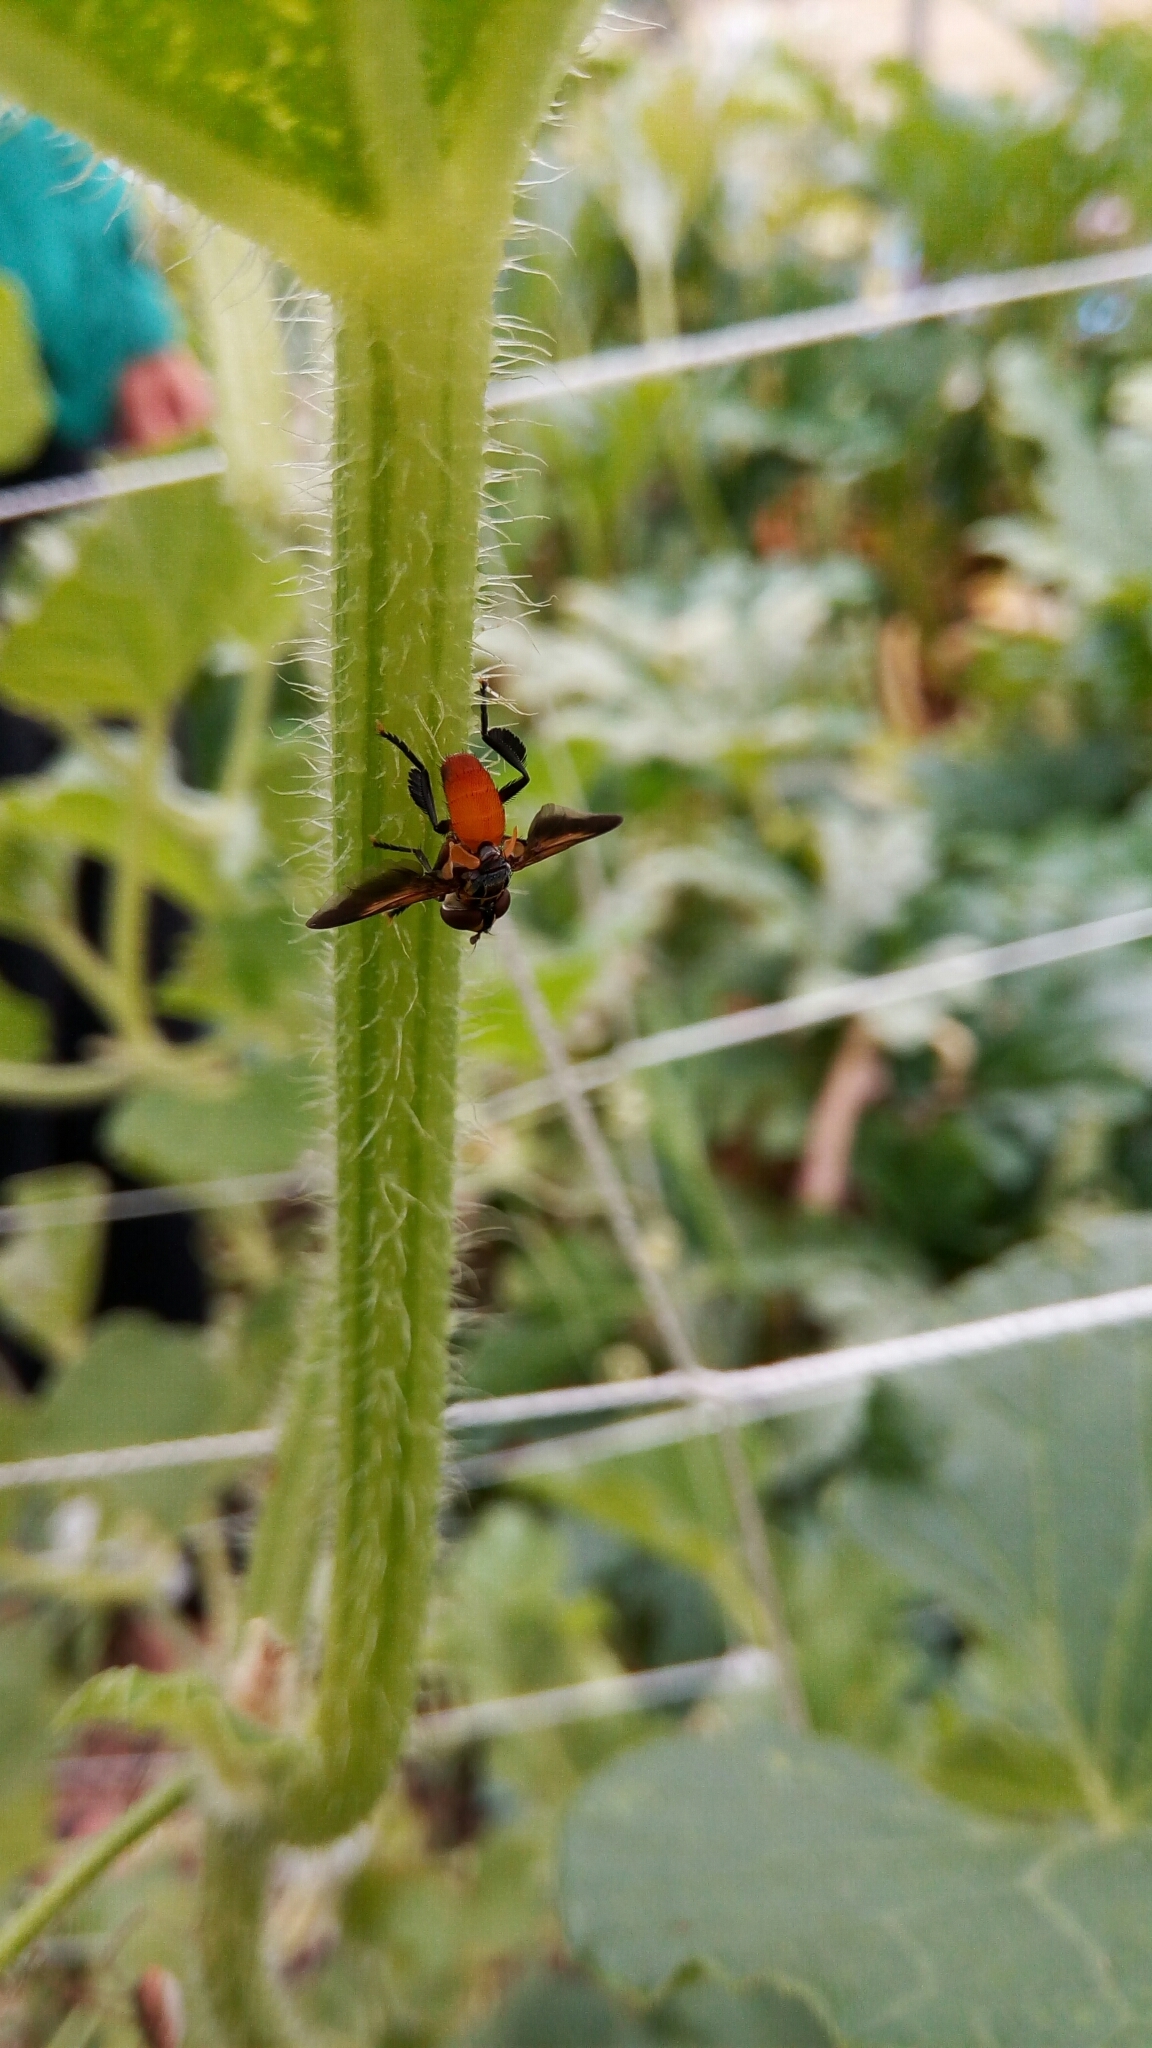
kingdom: Animalia
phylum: Arthropoda
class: Insecta
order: Diptera
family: Tachinidae
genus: Trichopoda
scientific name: Trichopoda pennipes
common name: Tachinid fly
